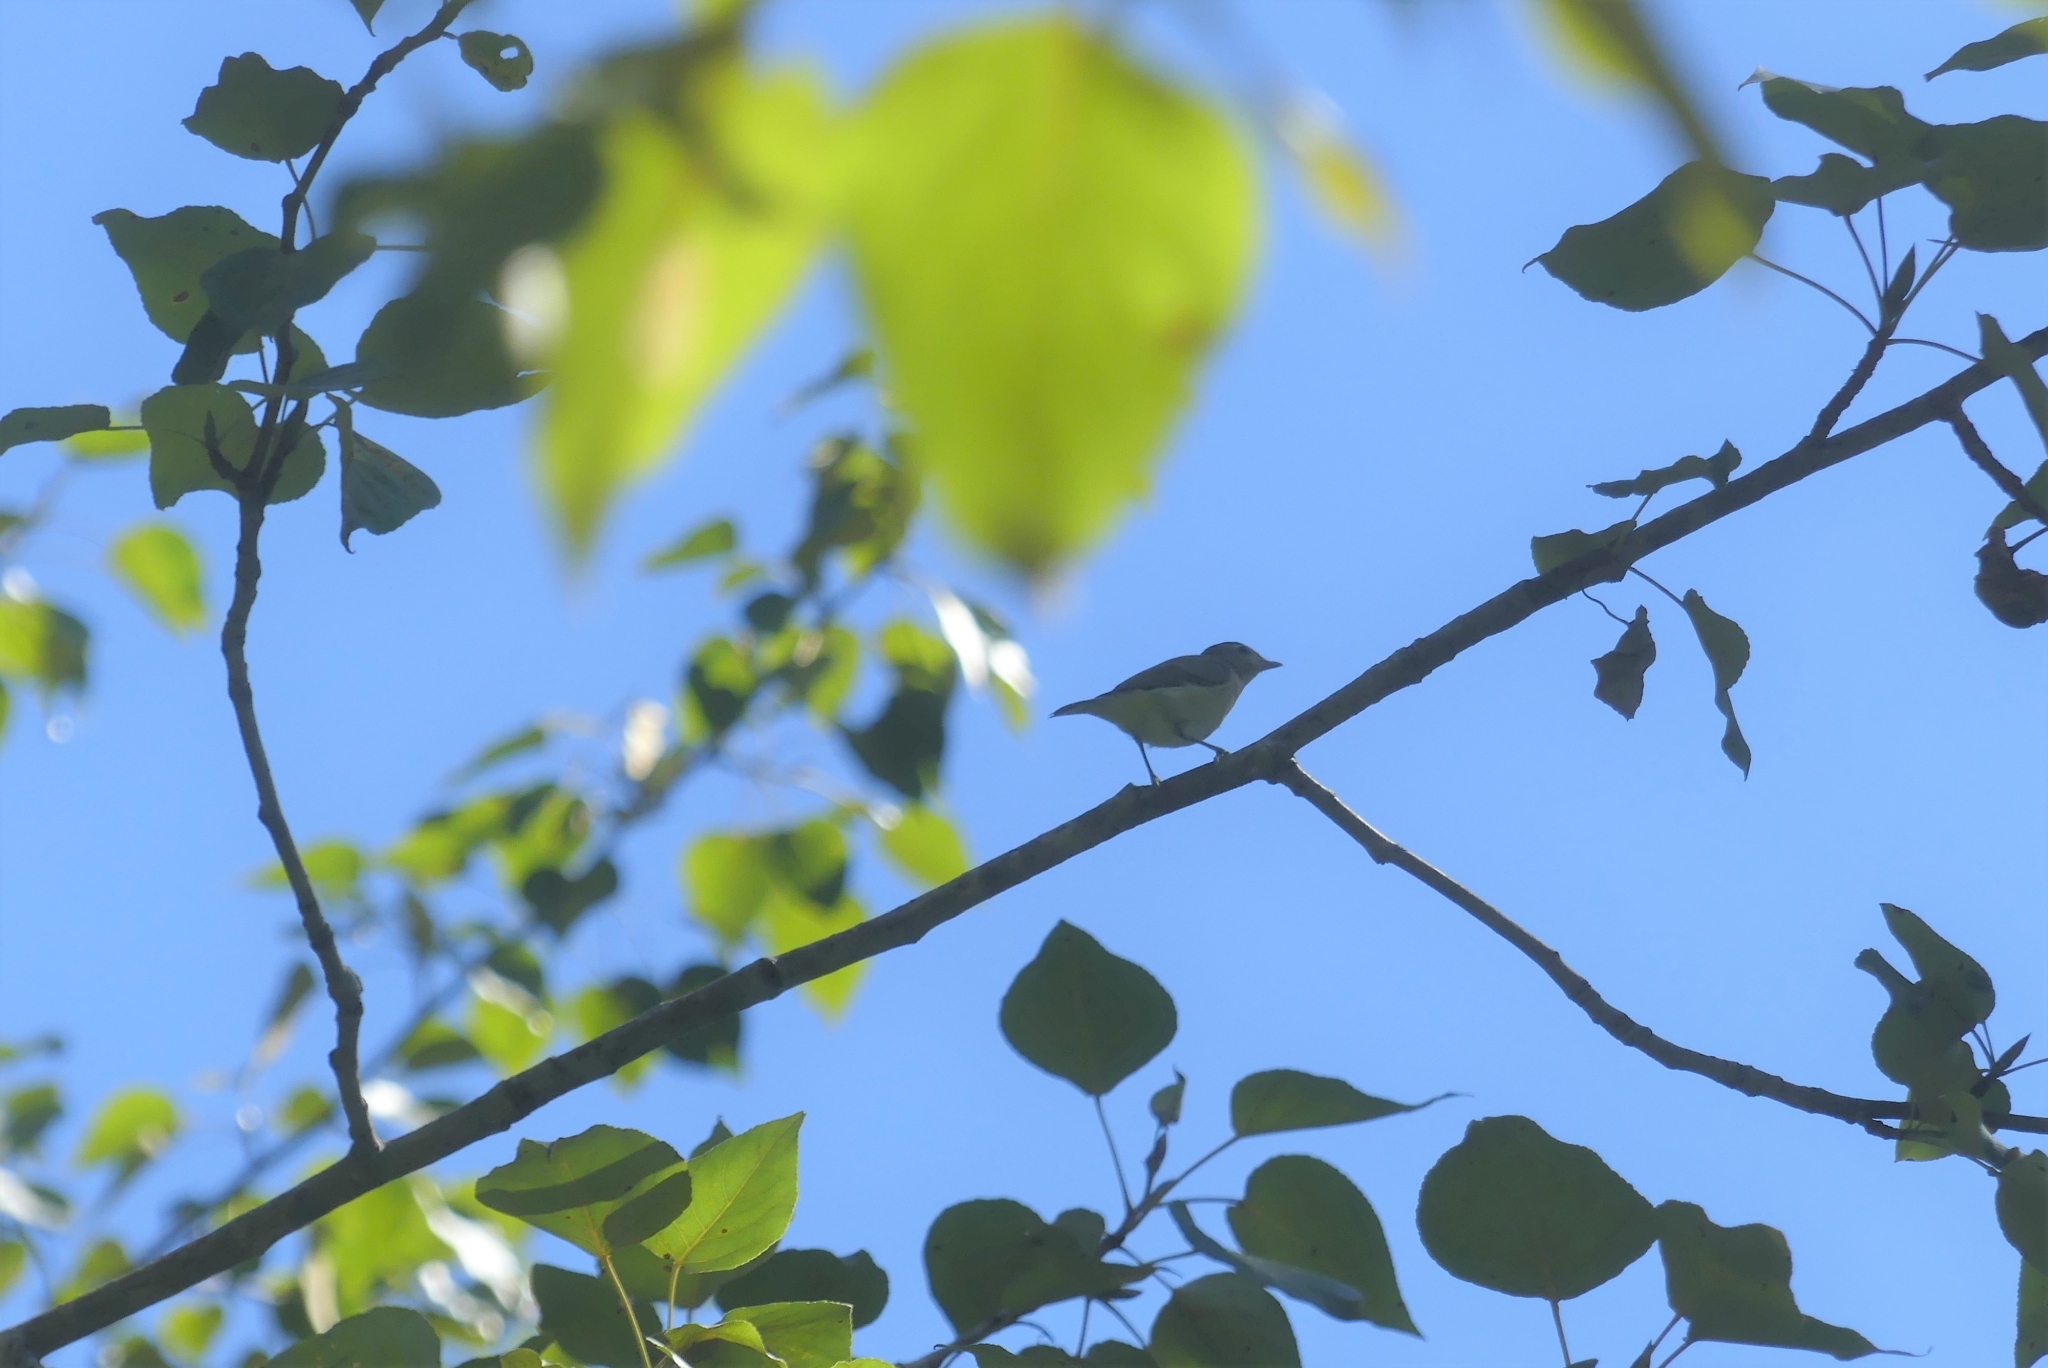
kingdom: Animalia
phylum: Chordata
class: Aves
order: Passeriformes
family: Vireonidae
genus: Vireo
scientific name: Vireo gilvus
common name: Warbling vireo
